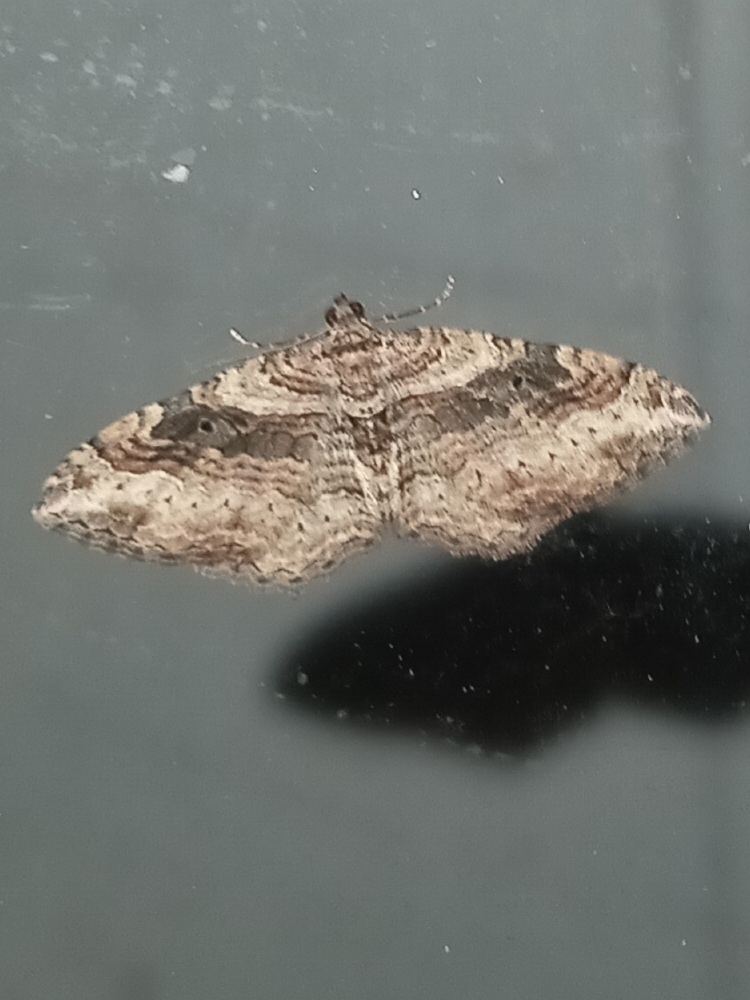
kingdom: Animalia
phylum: Arthropoda
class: Insecta
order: Lepidoptera
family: Geometridae
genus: Costaconvexa
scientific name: Costaconvexa centrostrigaria
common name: Bent-line carpet
